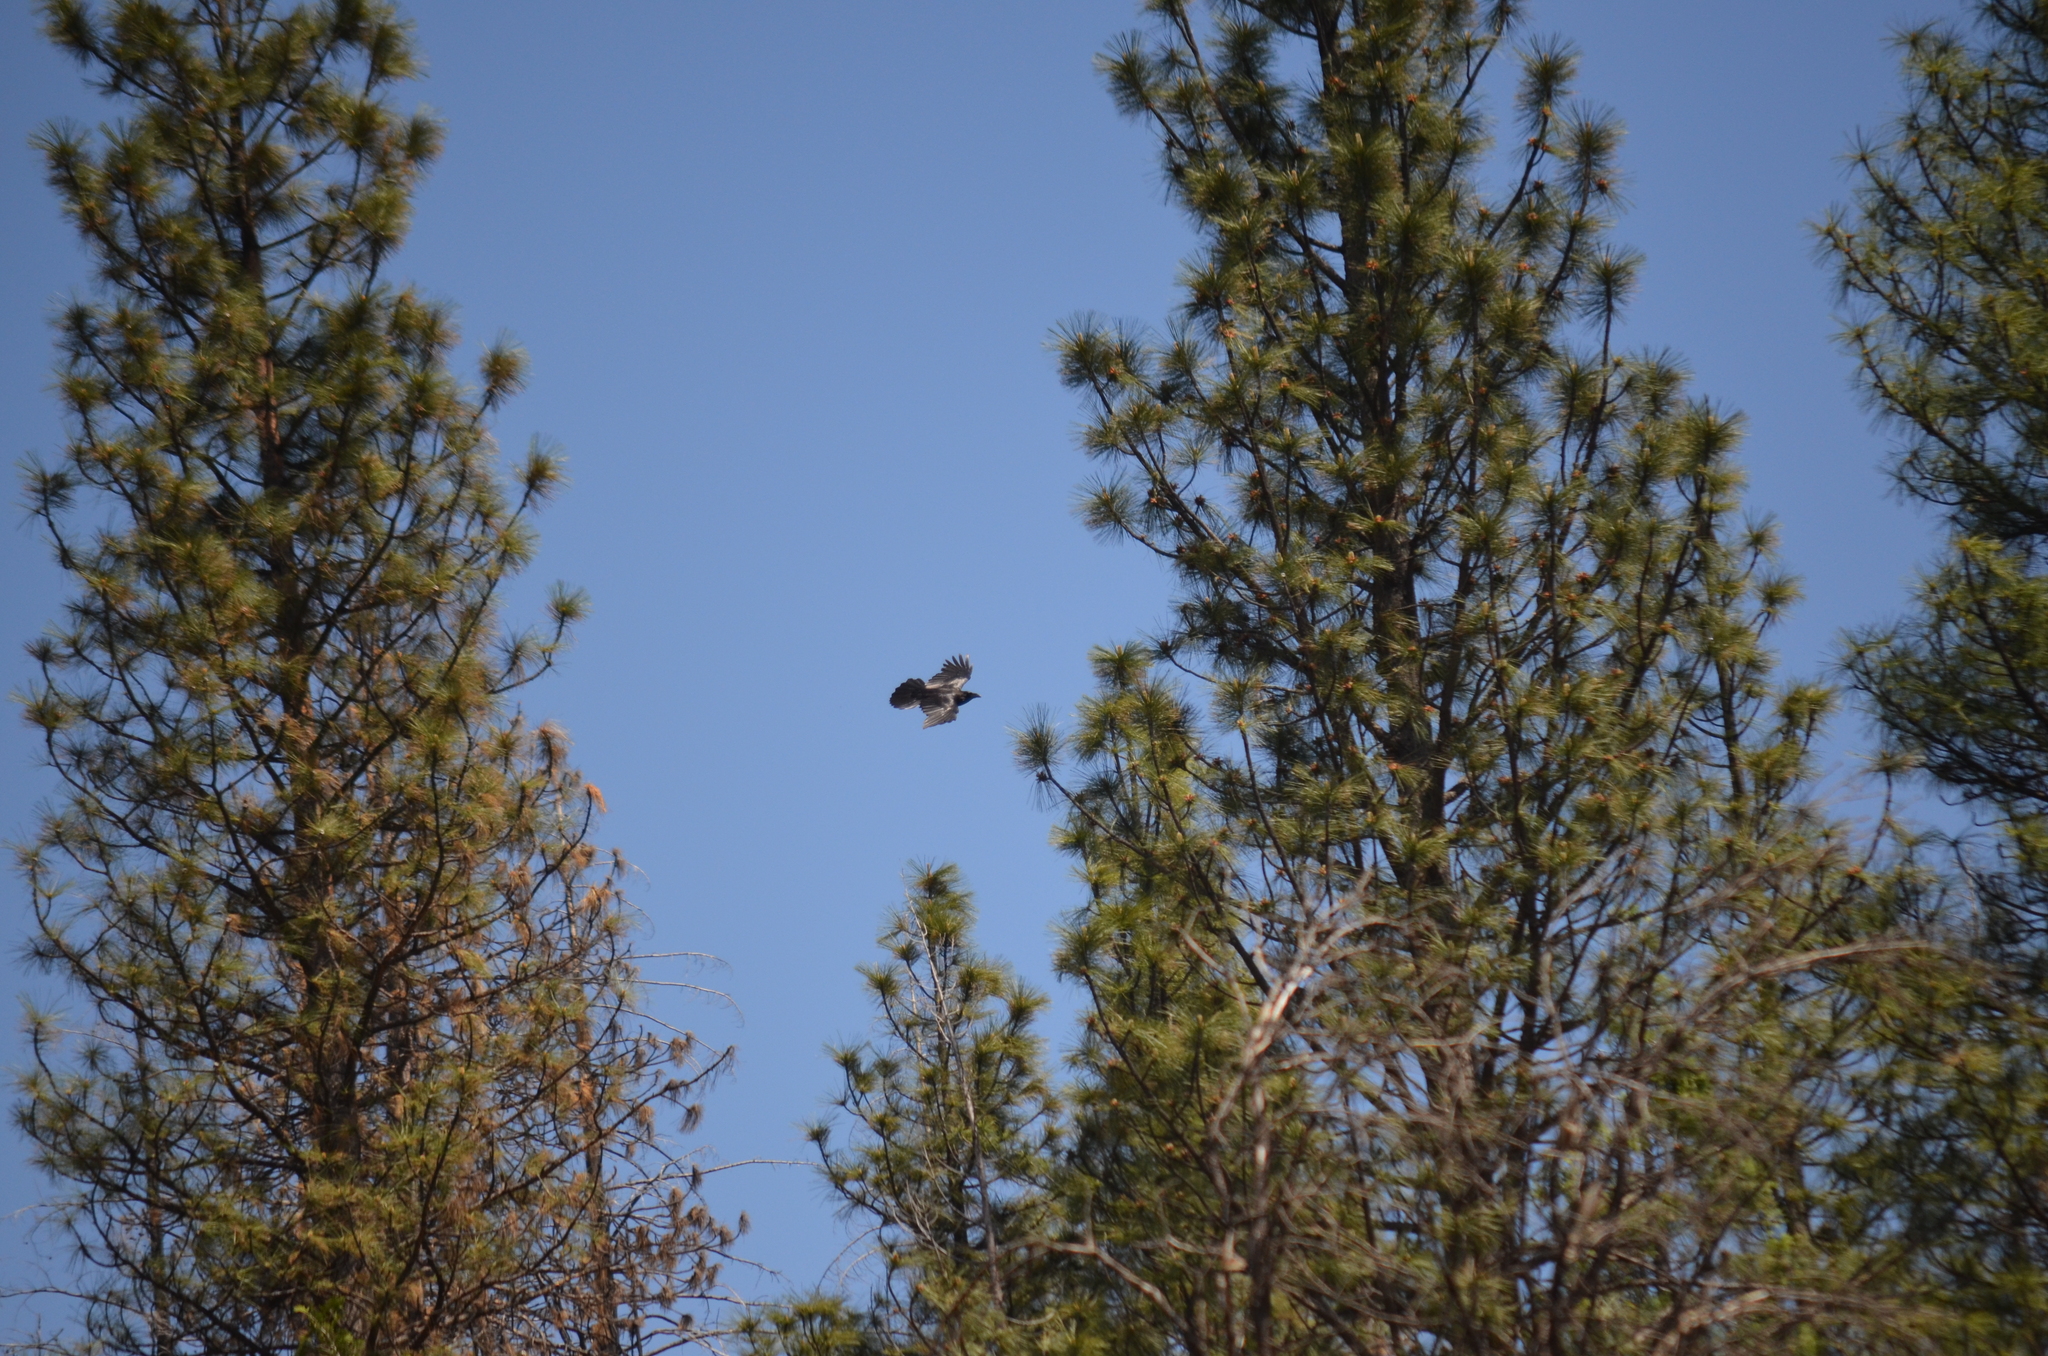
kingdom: Animalia
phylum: Chordata
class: Aves
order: Passeriformes
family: Corvidae
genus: Corvus
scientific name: Corvus corax
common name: Common raven
